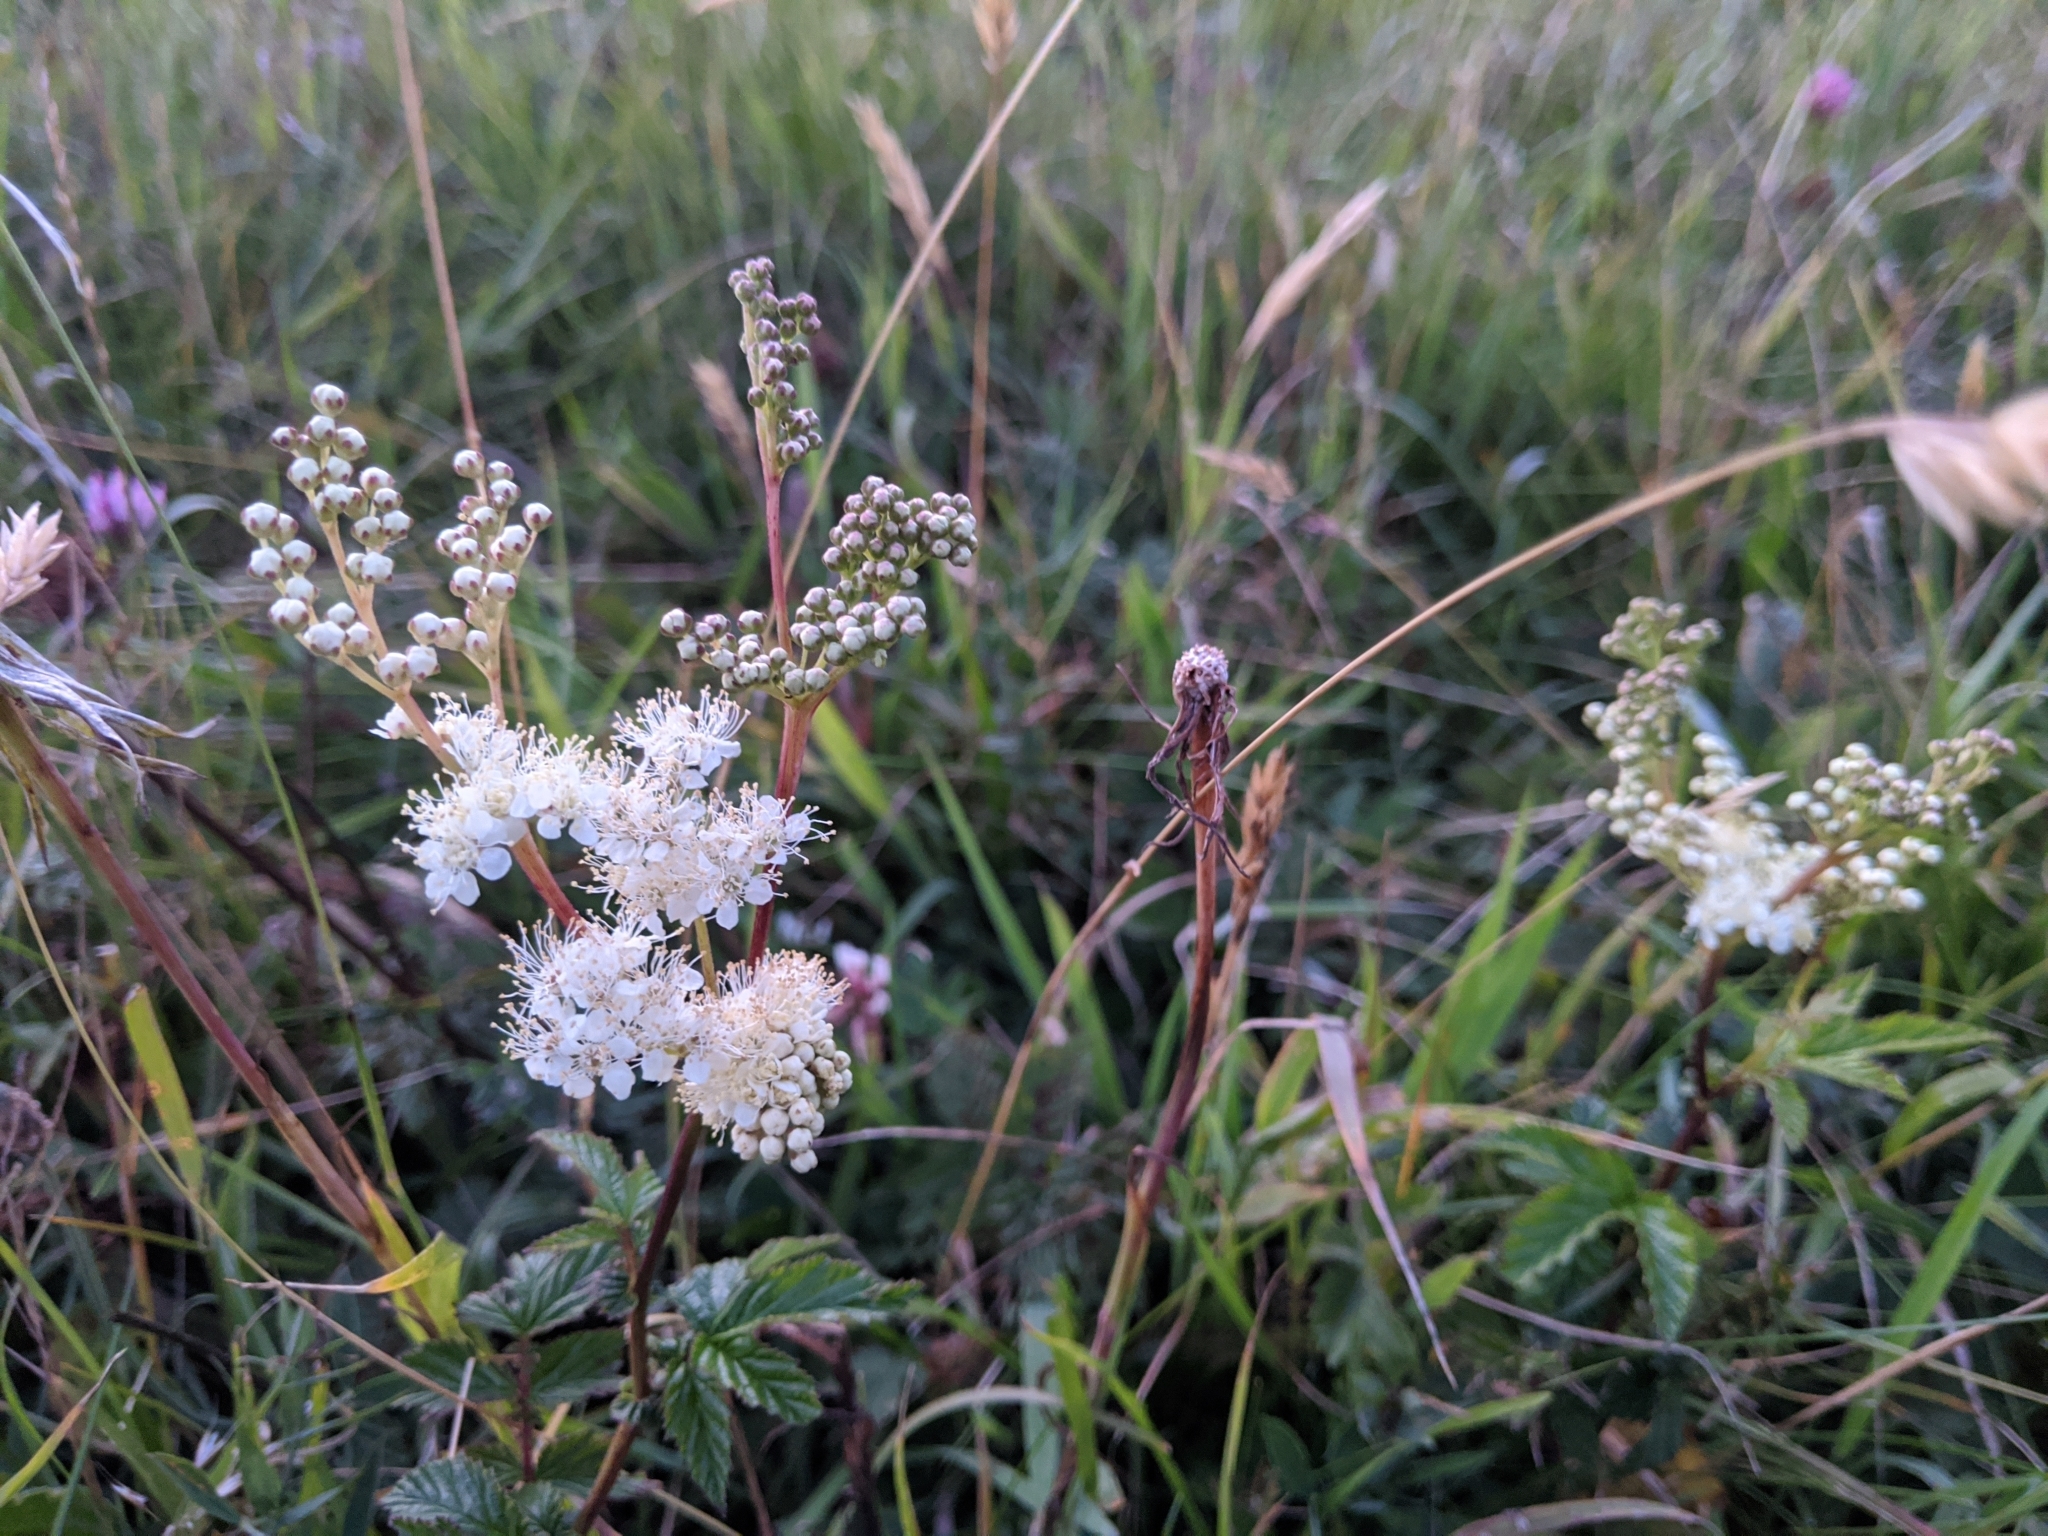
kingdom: Plantae
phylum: Tracheophyta
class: Magnoliopsida
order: Rosales
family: Rosaceae
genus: Filipendula
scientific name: Filipendula ulmaria
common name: Meadowsweet
